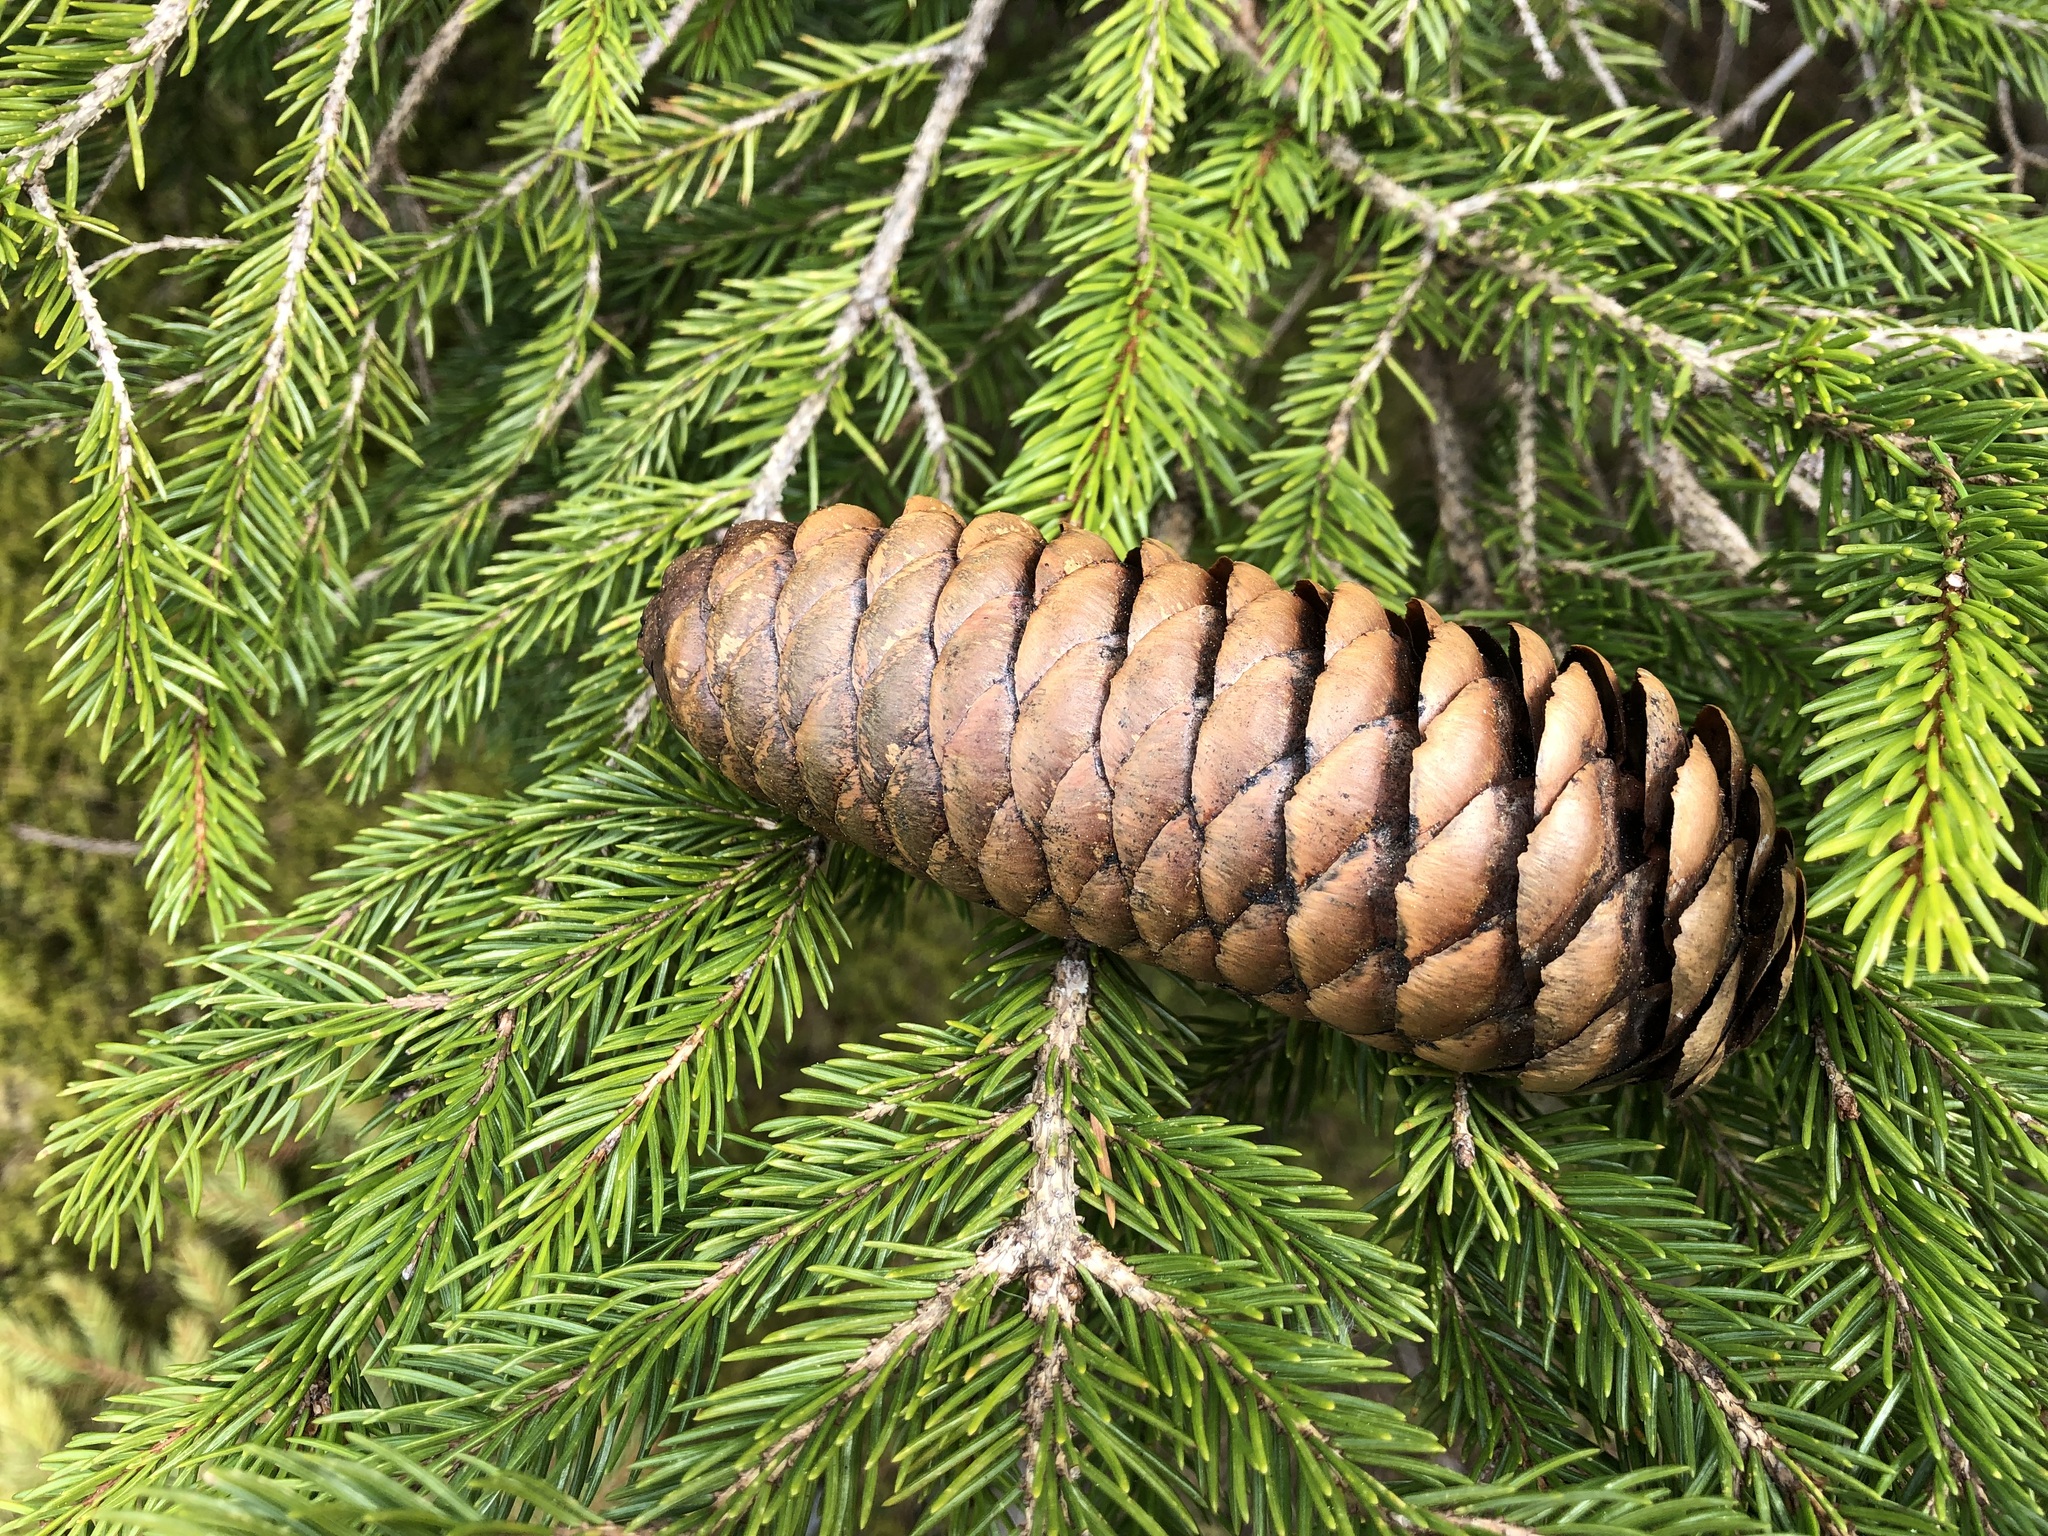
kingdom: Plantae
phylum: Tracheophyta
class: Pinopsida
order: Pinales
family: Pinaceae
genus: Picea
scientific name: Picea abies
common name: Norway spruce
